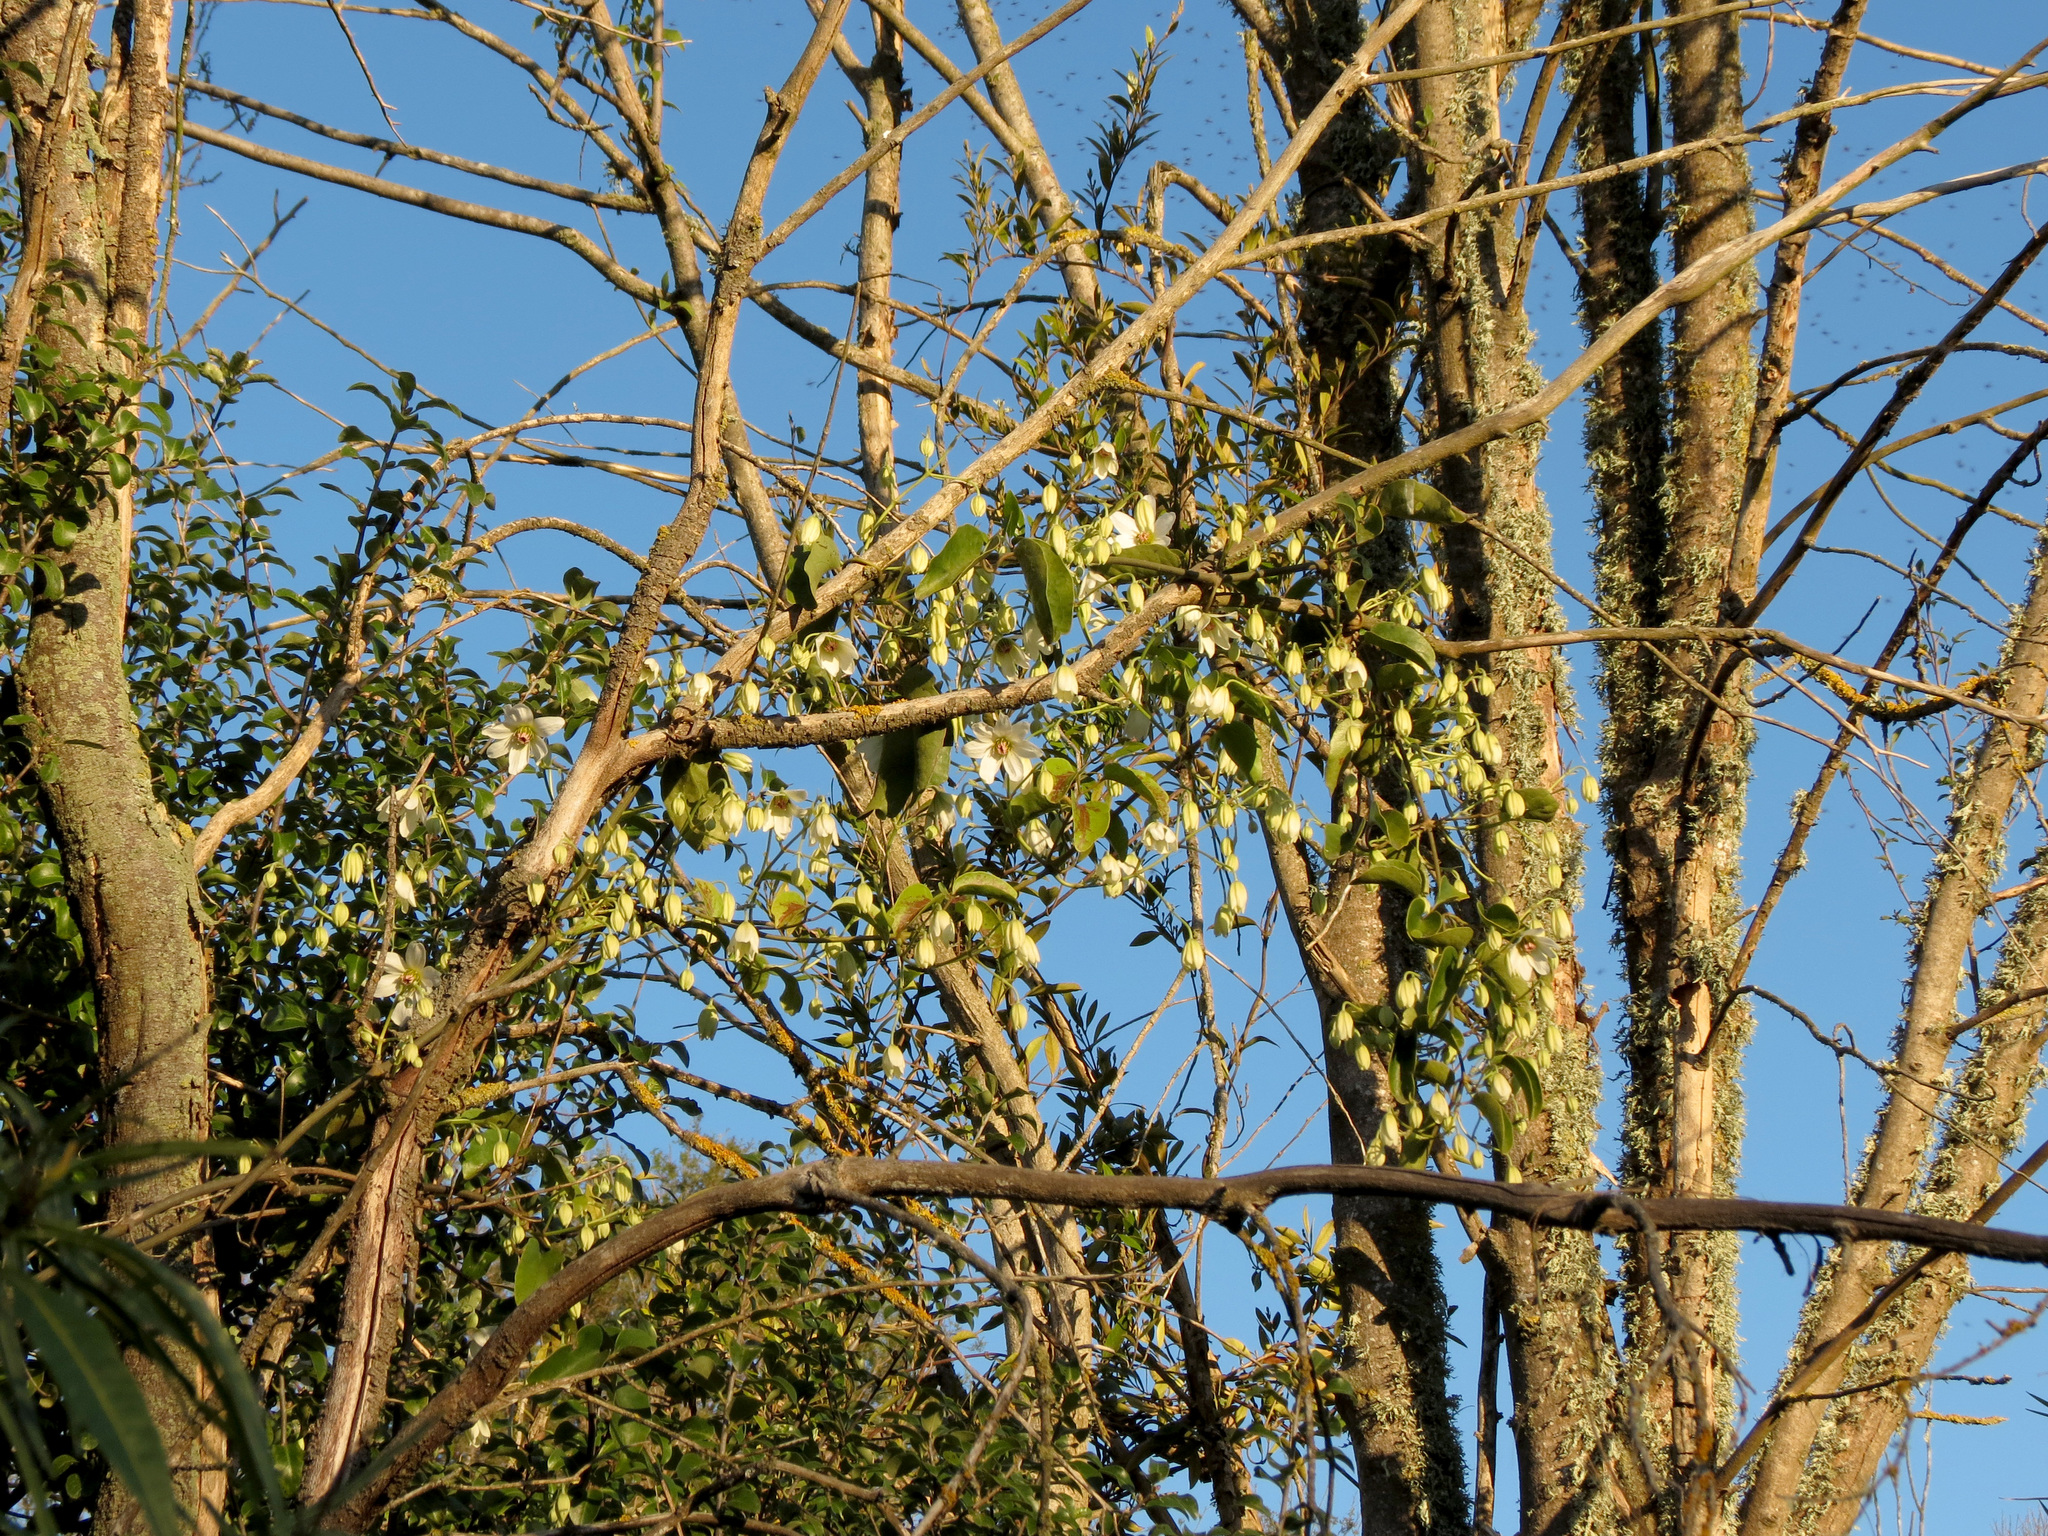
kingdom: Plantae
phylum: Tracheophyta
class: Magnoliopsida
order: Ranunculales
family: Ranunculaceae
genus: Clematis
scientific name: Clematis paniculata
